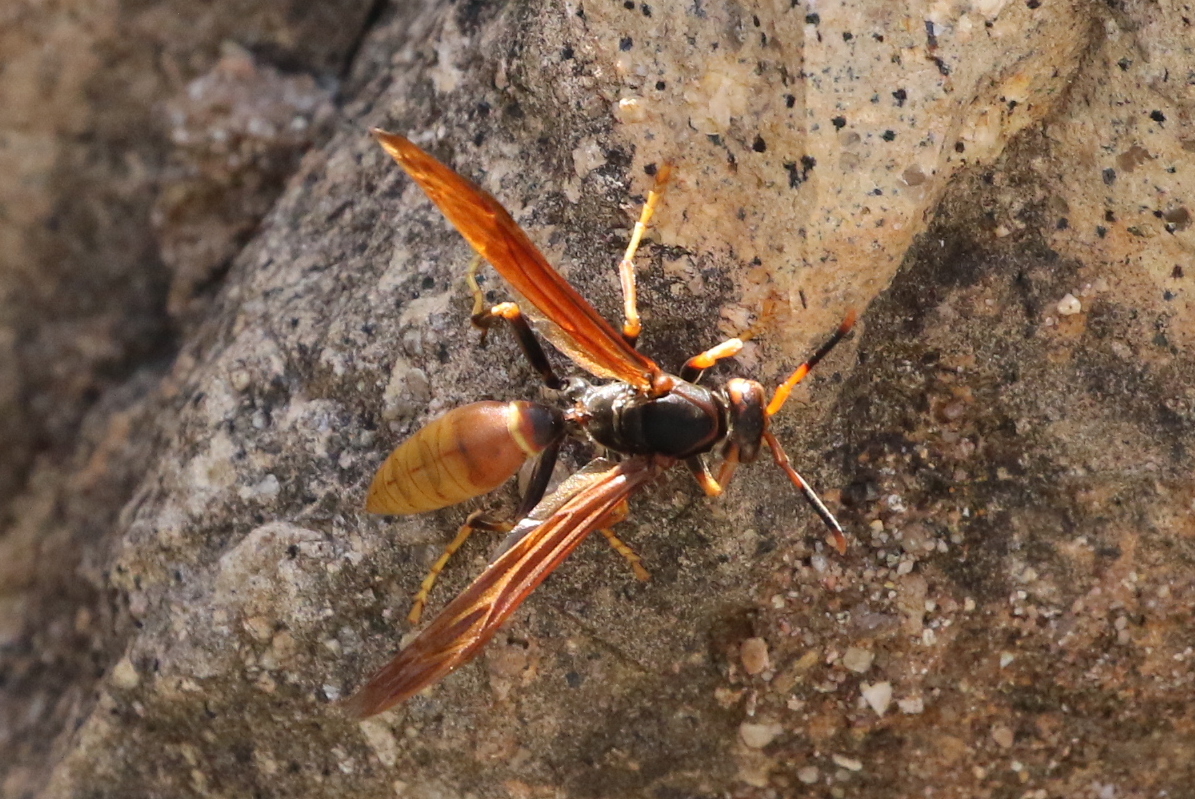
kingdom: Animalia
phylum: Arthropoda
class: Insecta
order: Hymenoptera
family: Eumenidae
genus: Polistes
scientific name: Polistes comanchus
